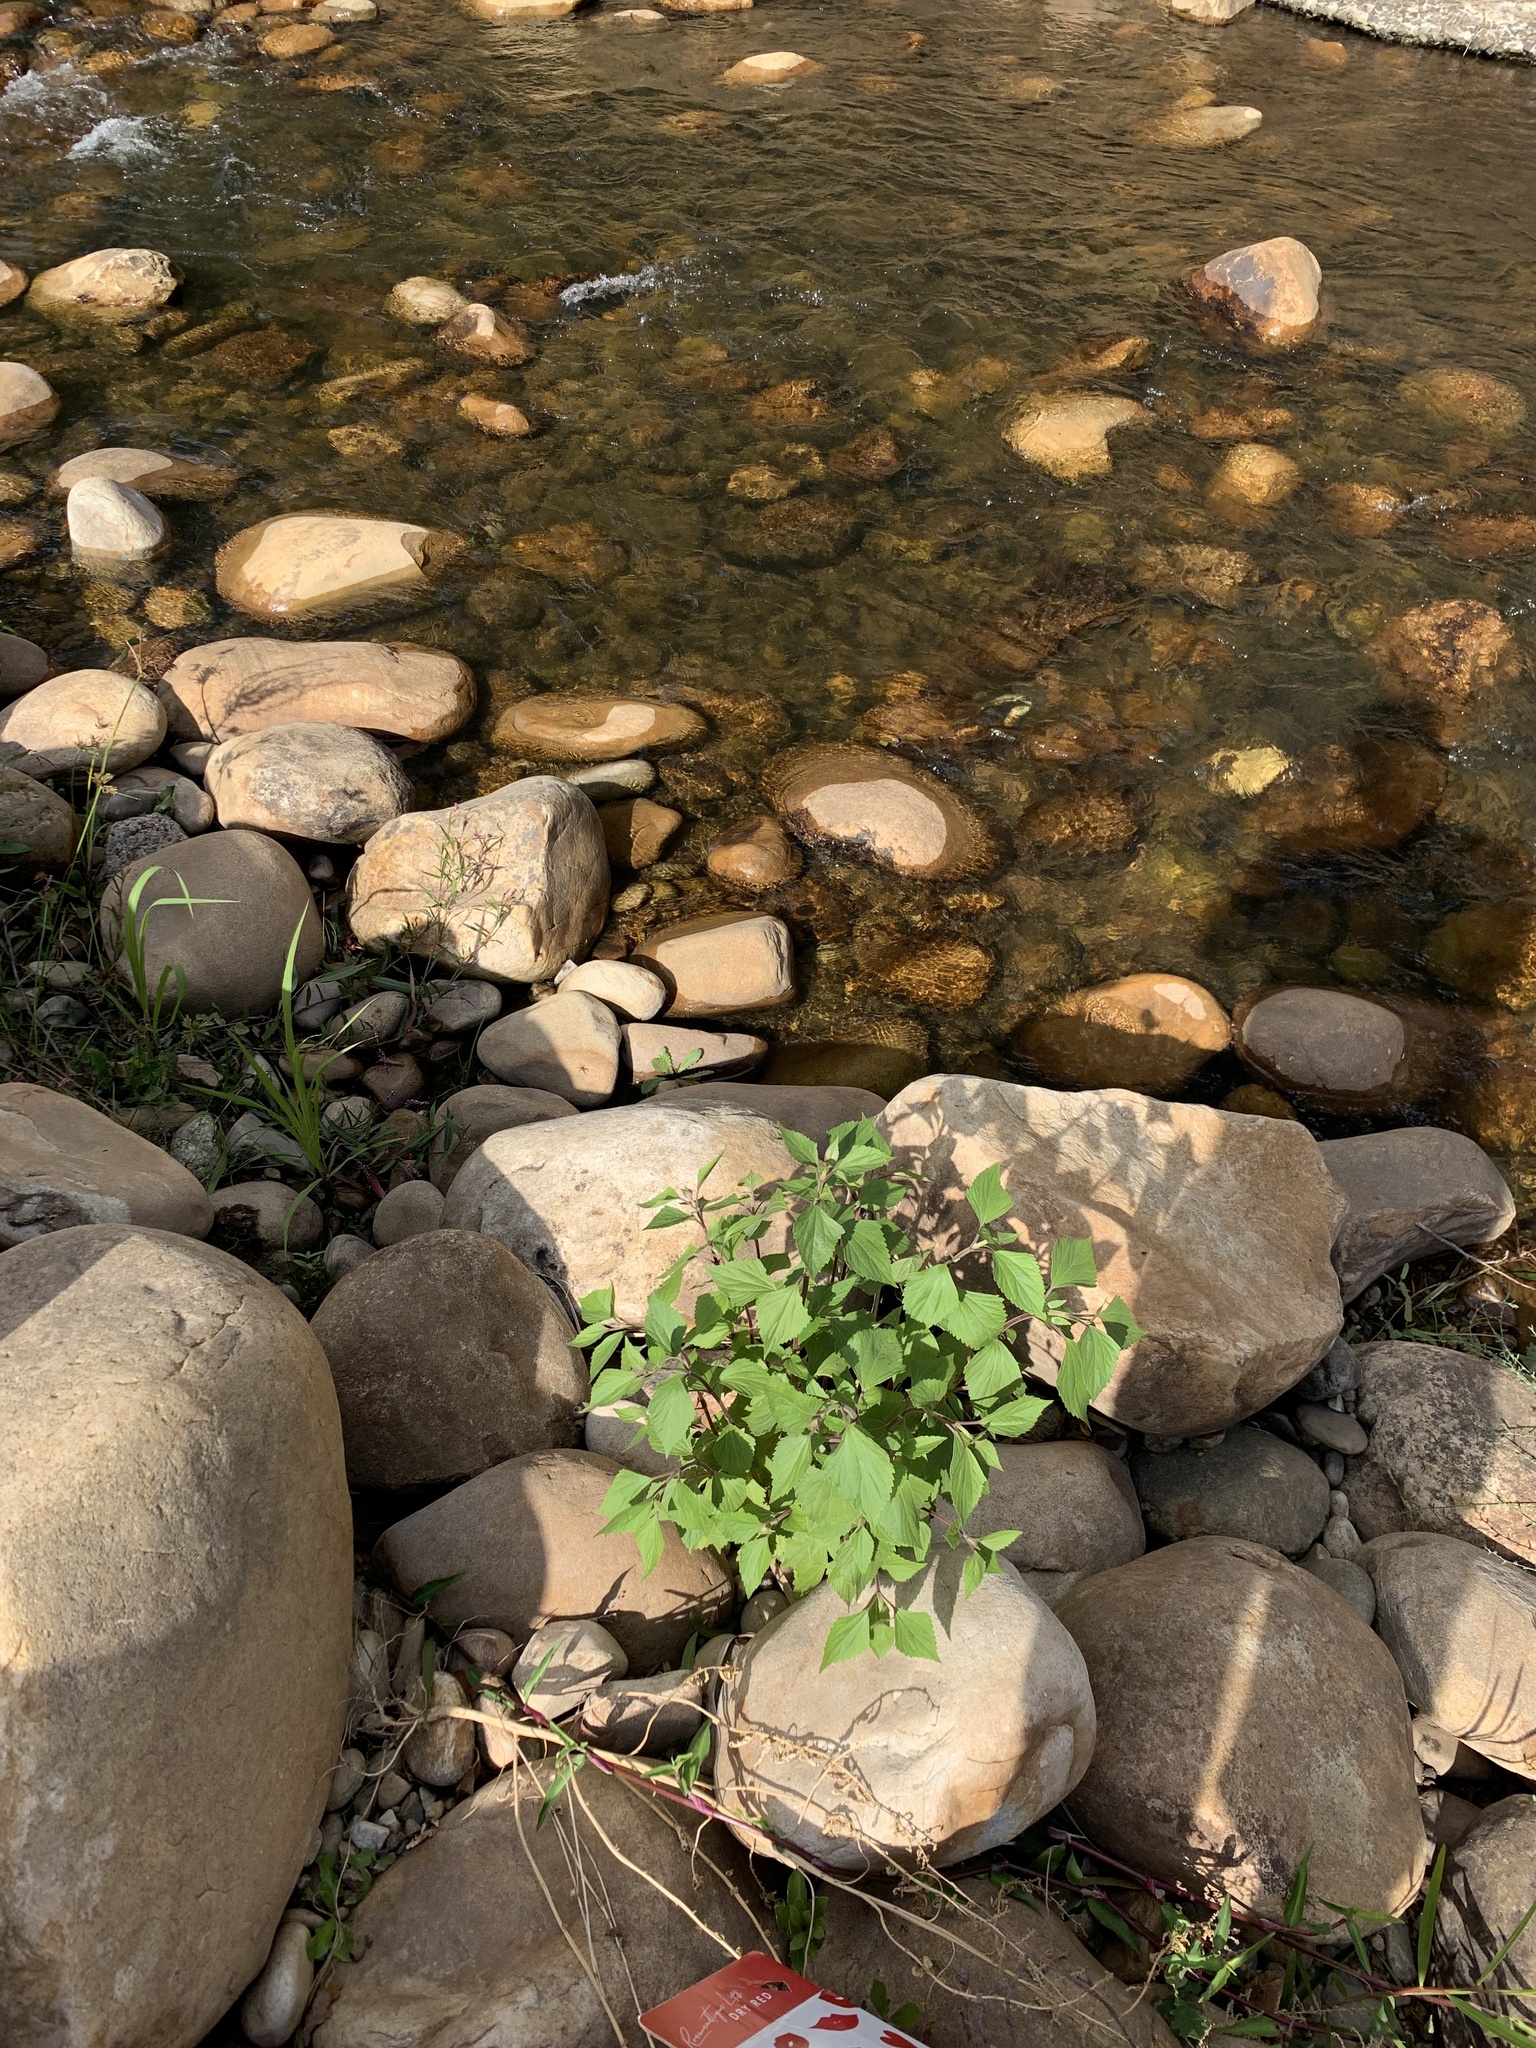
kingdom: Plantae
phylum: Tracheophyta
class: Magnoliopsida
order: Asterales
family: Asteraceae
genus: Ageratina
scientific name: Ageratina adenophora
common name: Sticky snakeroot
